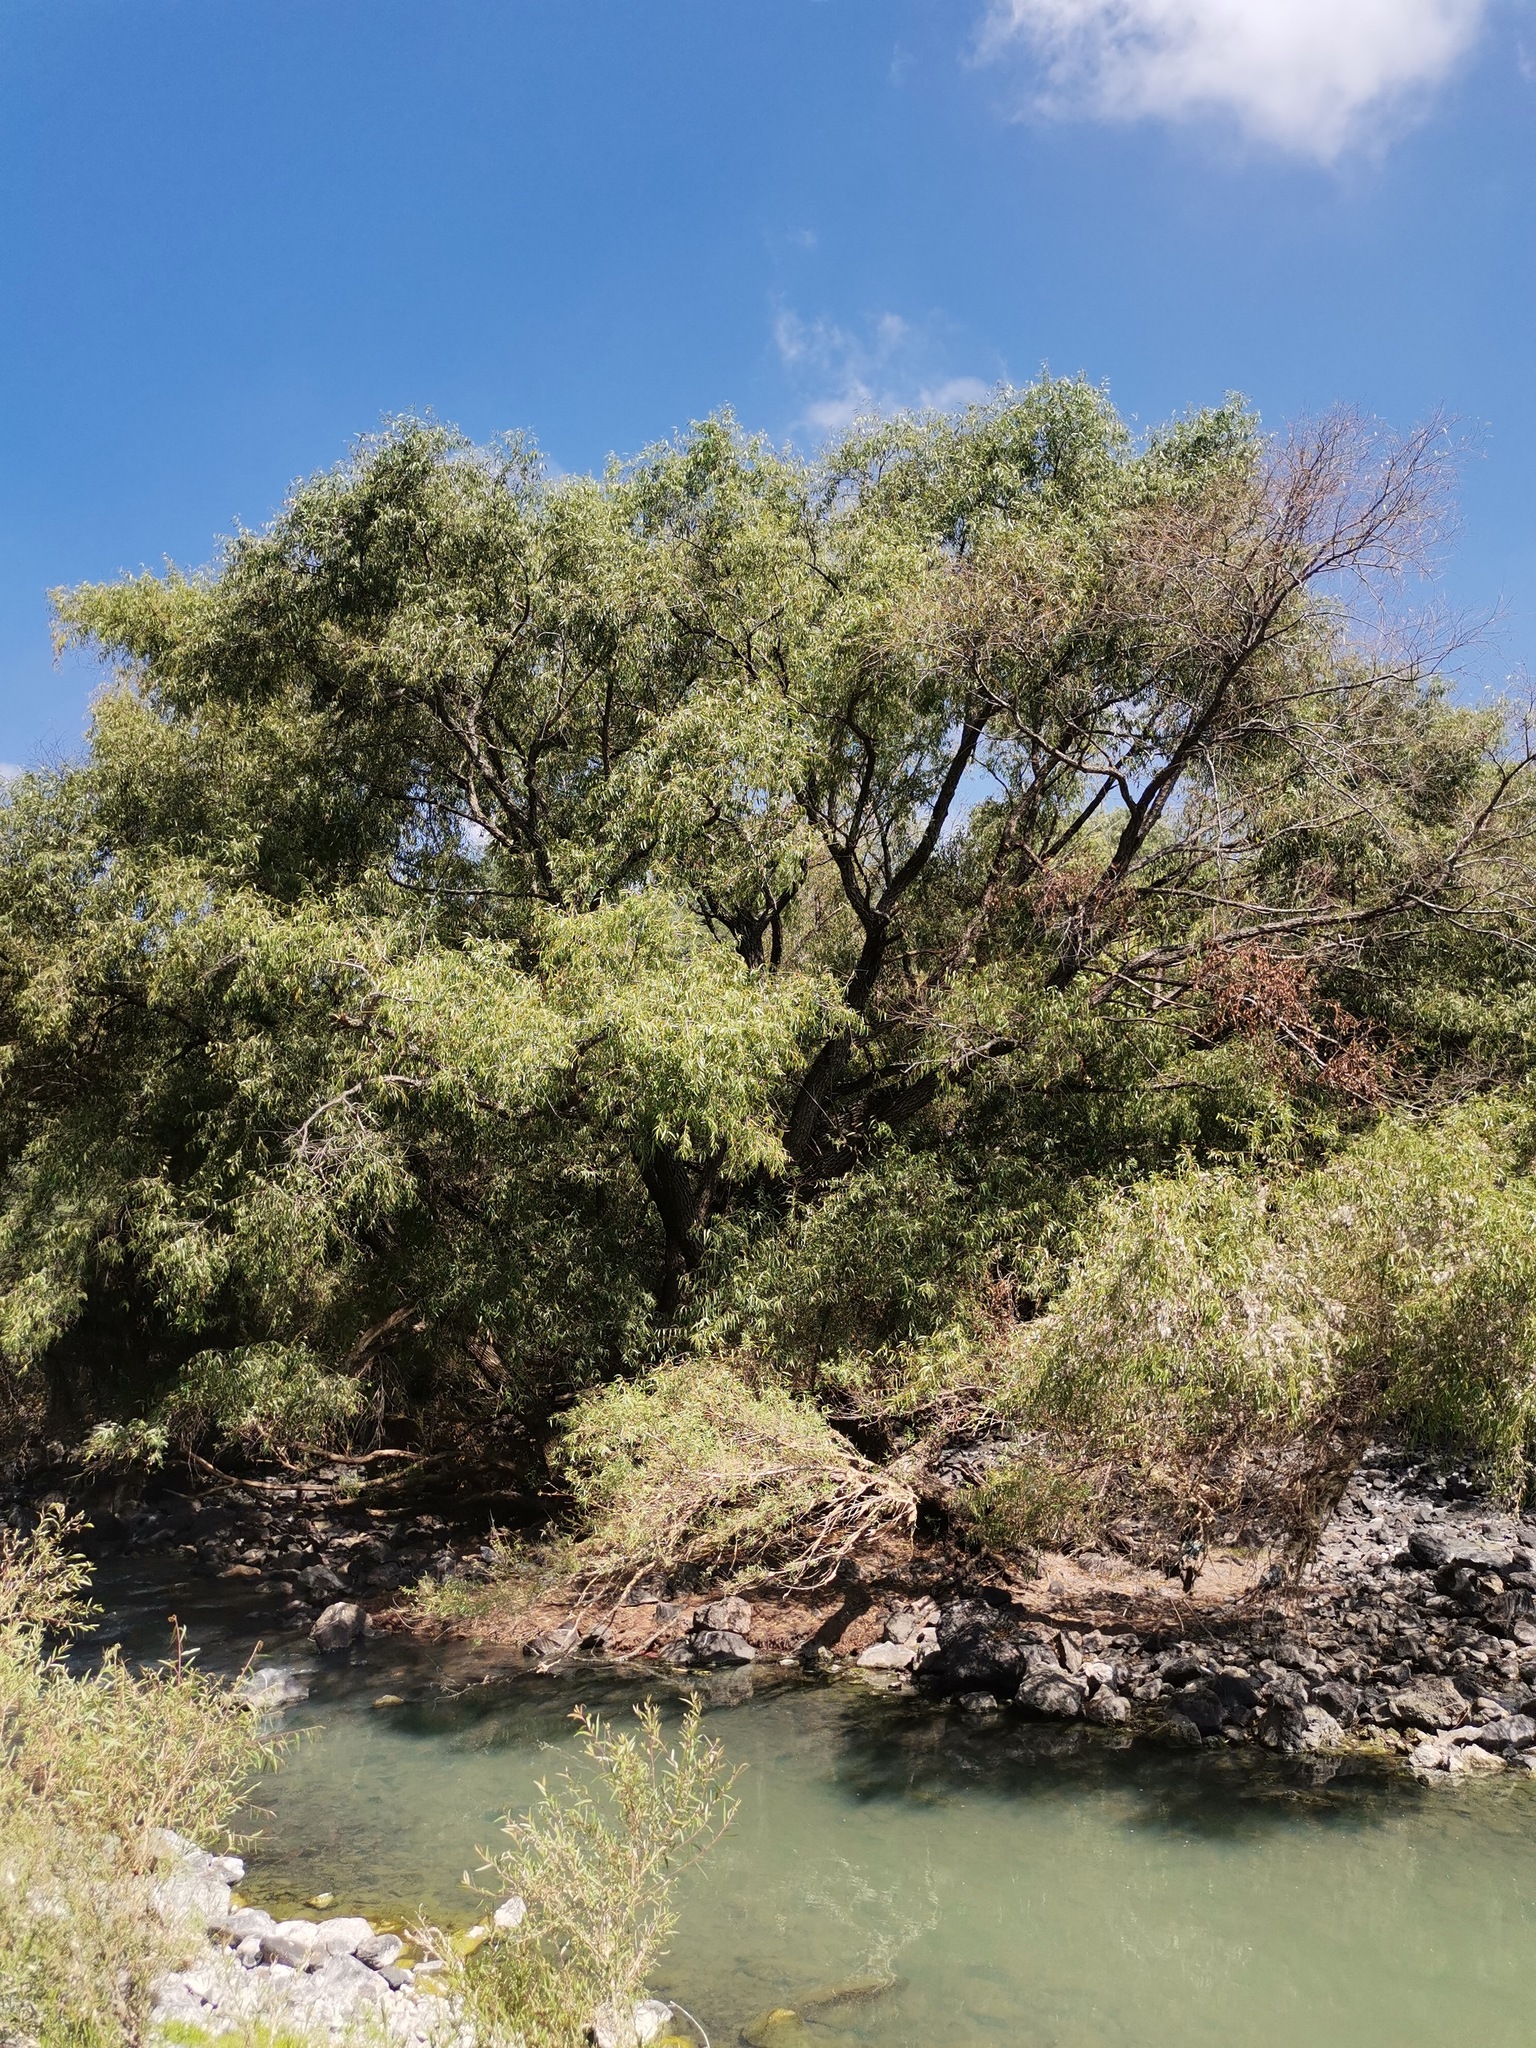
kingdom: Plantae
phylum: Tracheophyta
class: Pinopsida
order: Pinales
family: Cupressaceae
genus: Taxodium
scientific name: Taxodium mucronatum
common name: Montezume bald cypress
